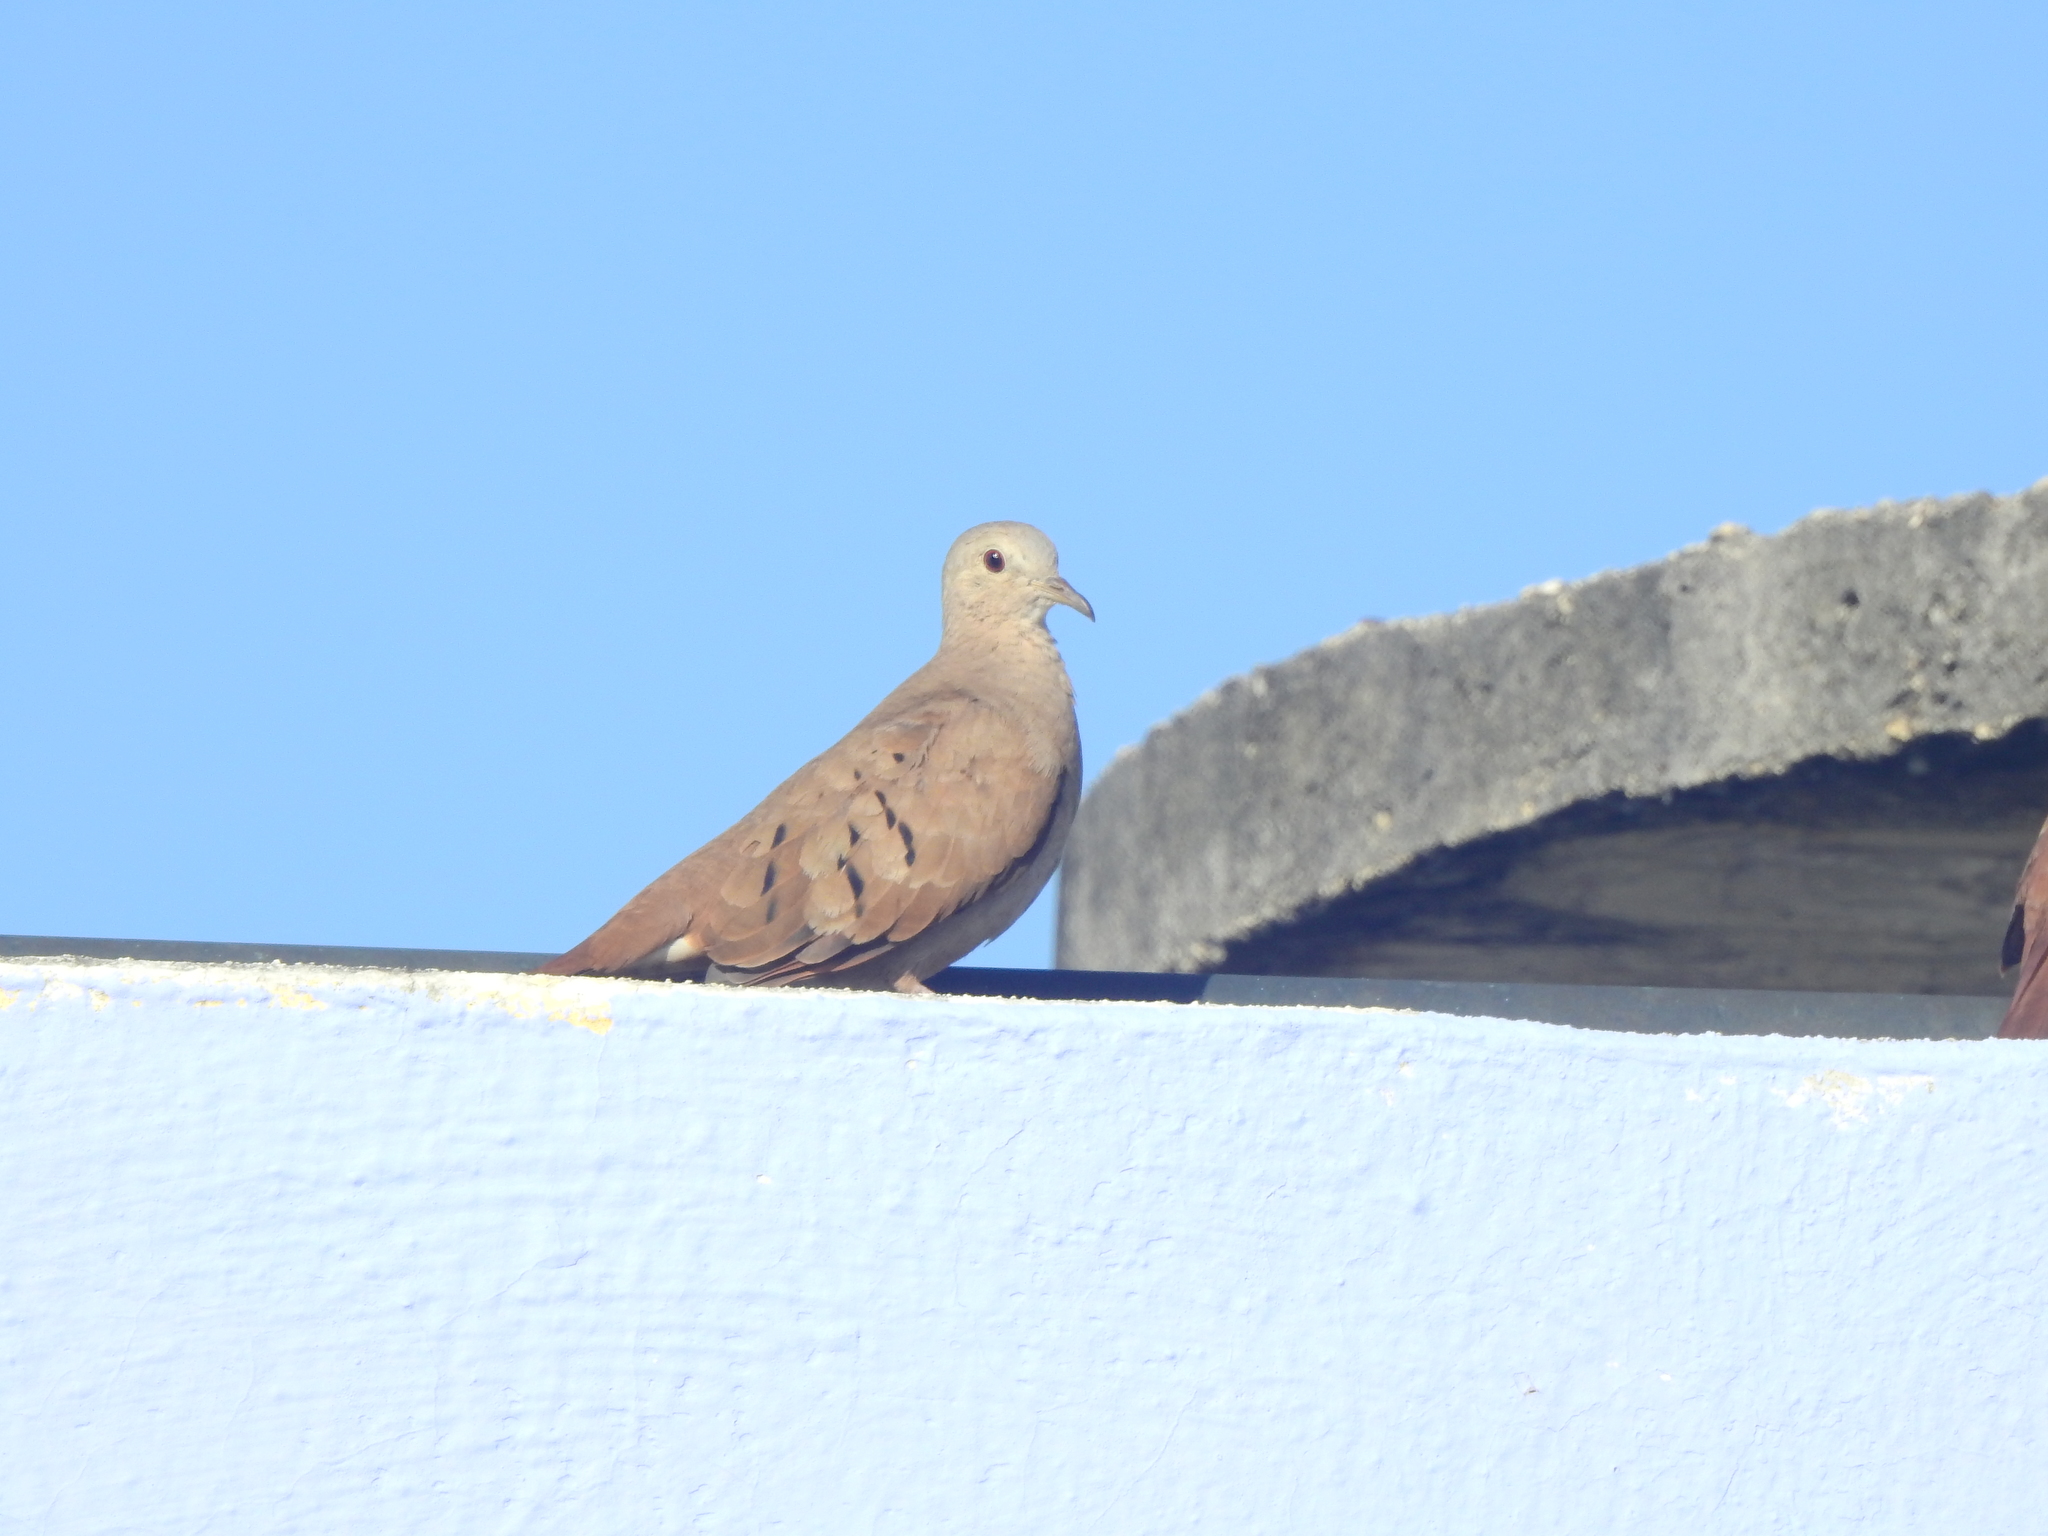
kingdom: Animalia
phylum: Chordata
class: Aves
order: Columbiformes
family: Columbidae
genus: Columbina
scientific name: Columbina talpacoti
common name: Ruddy ground dove
